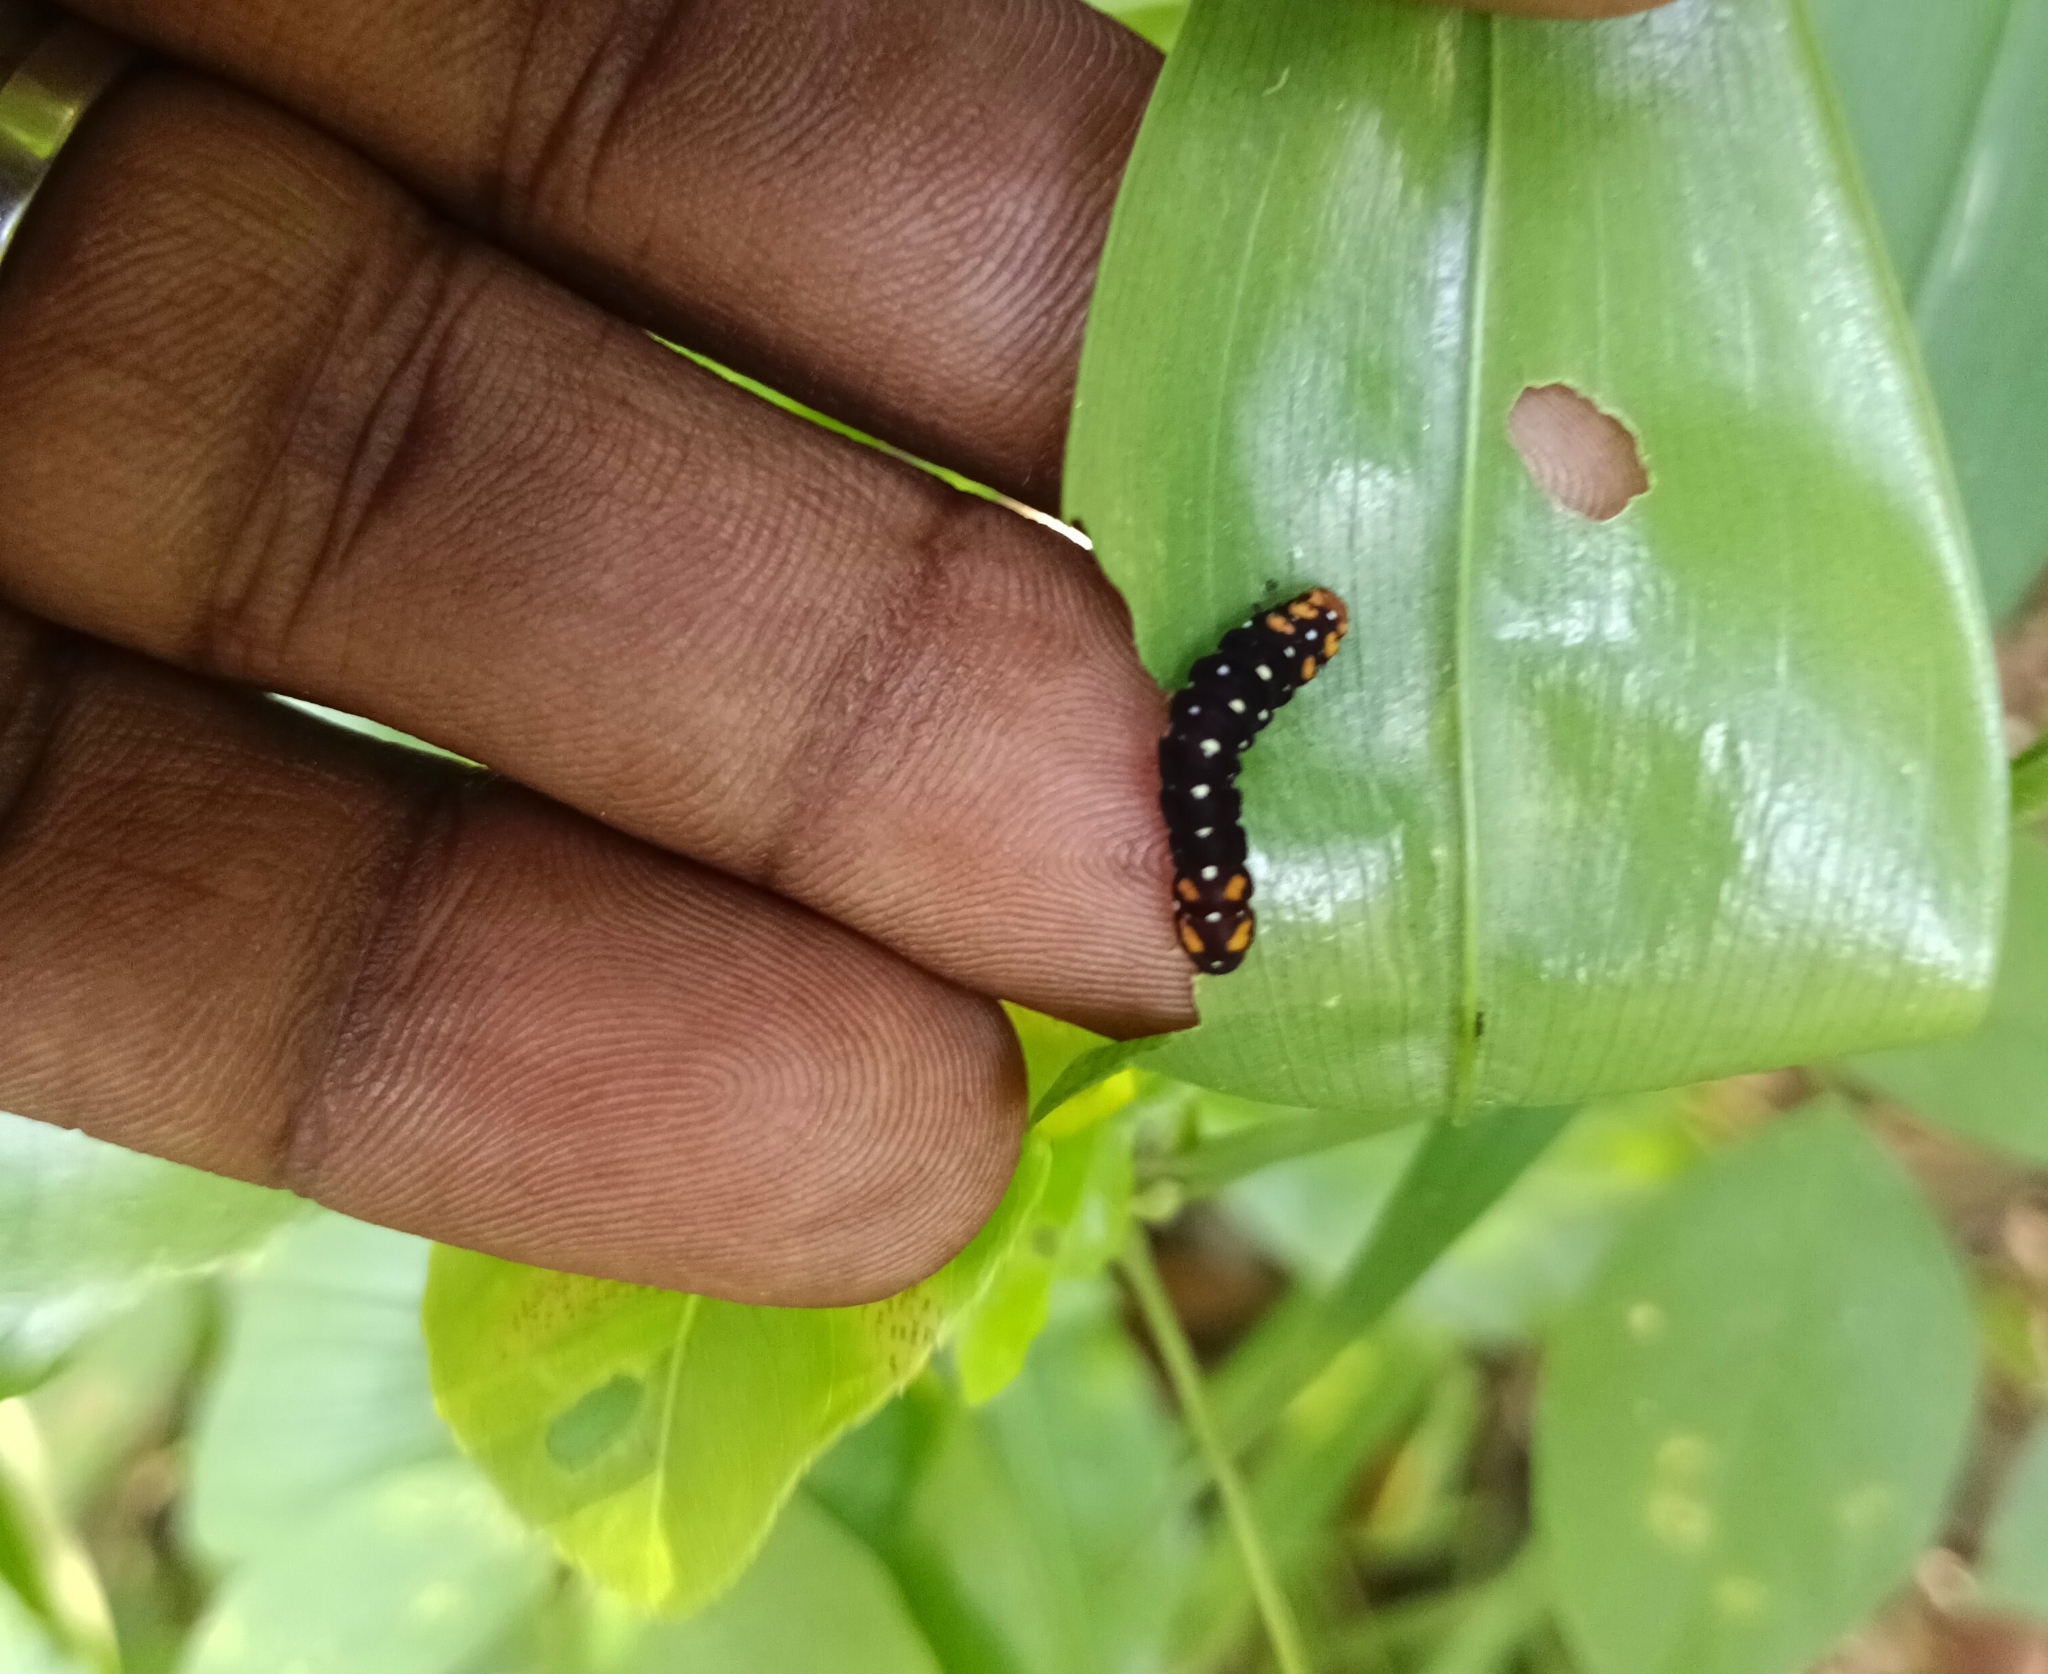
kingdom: Animalia
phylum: Arthropoda
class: Insecta
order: Lepidoptera
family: Noctuidae
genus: Polytela
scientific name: Polytela gloriosae
